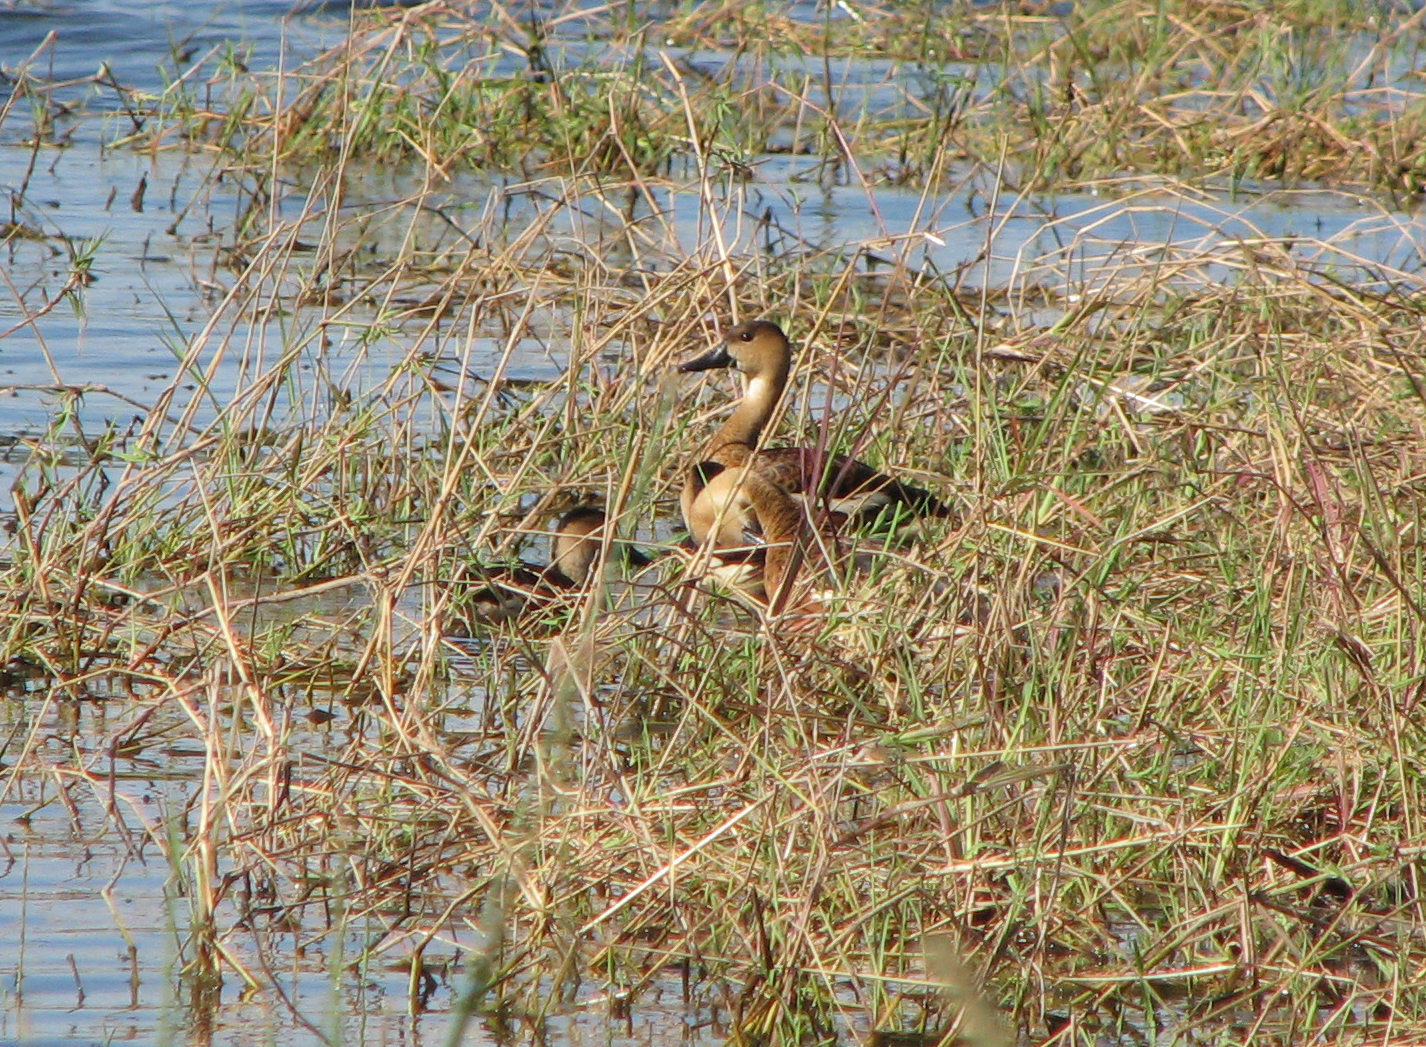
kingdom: Animalia
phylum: Chordata
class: Aves
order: Anseriformes
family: Anatidae
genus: Dendrocygna
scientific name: Dendrocygna arcuata
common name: Wandering whistling-duck
